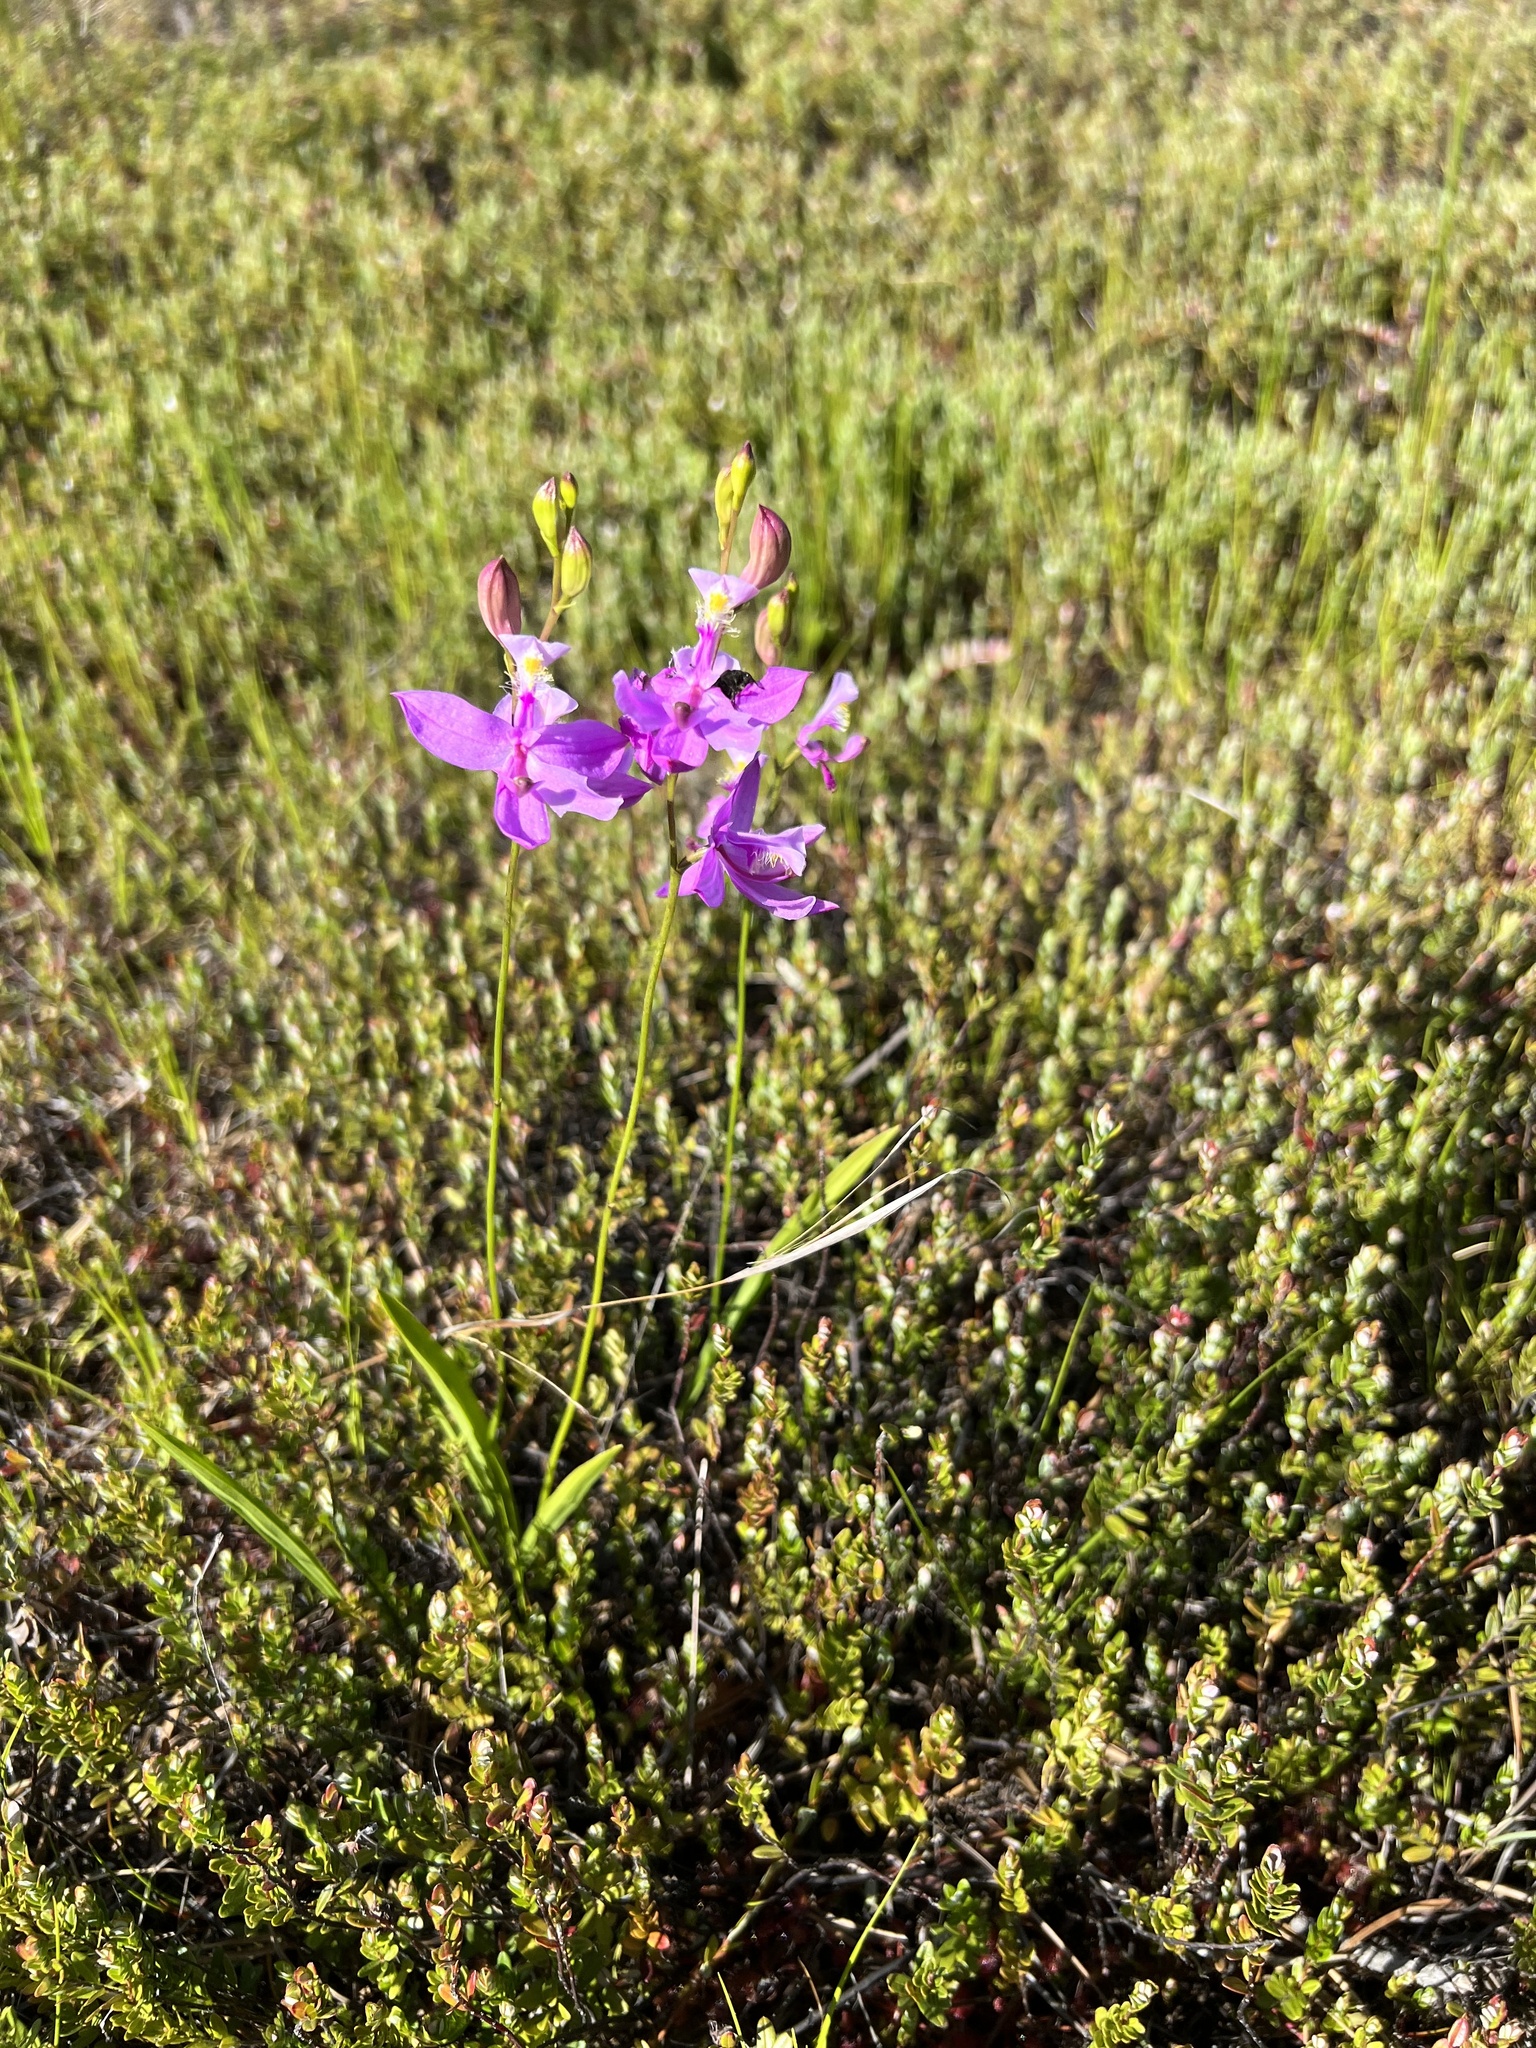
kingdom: Plantae
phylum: Tracheophyta
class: Liliopsida
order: Asparagales
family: Orchidaceae
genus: Calopogon
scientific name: Calopogon tuberosus
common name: Grass-pink
